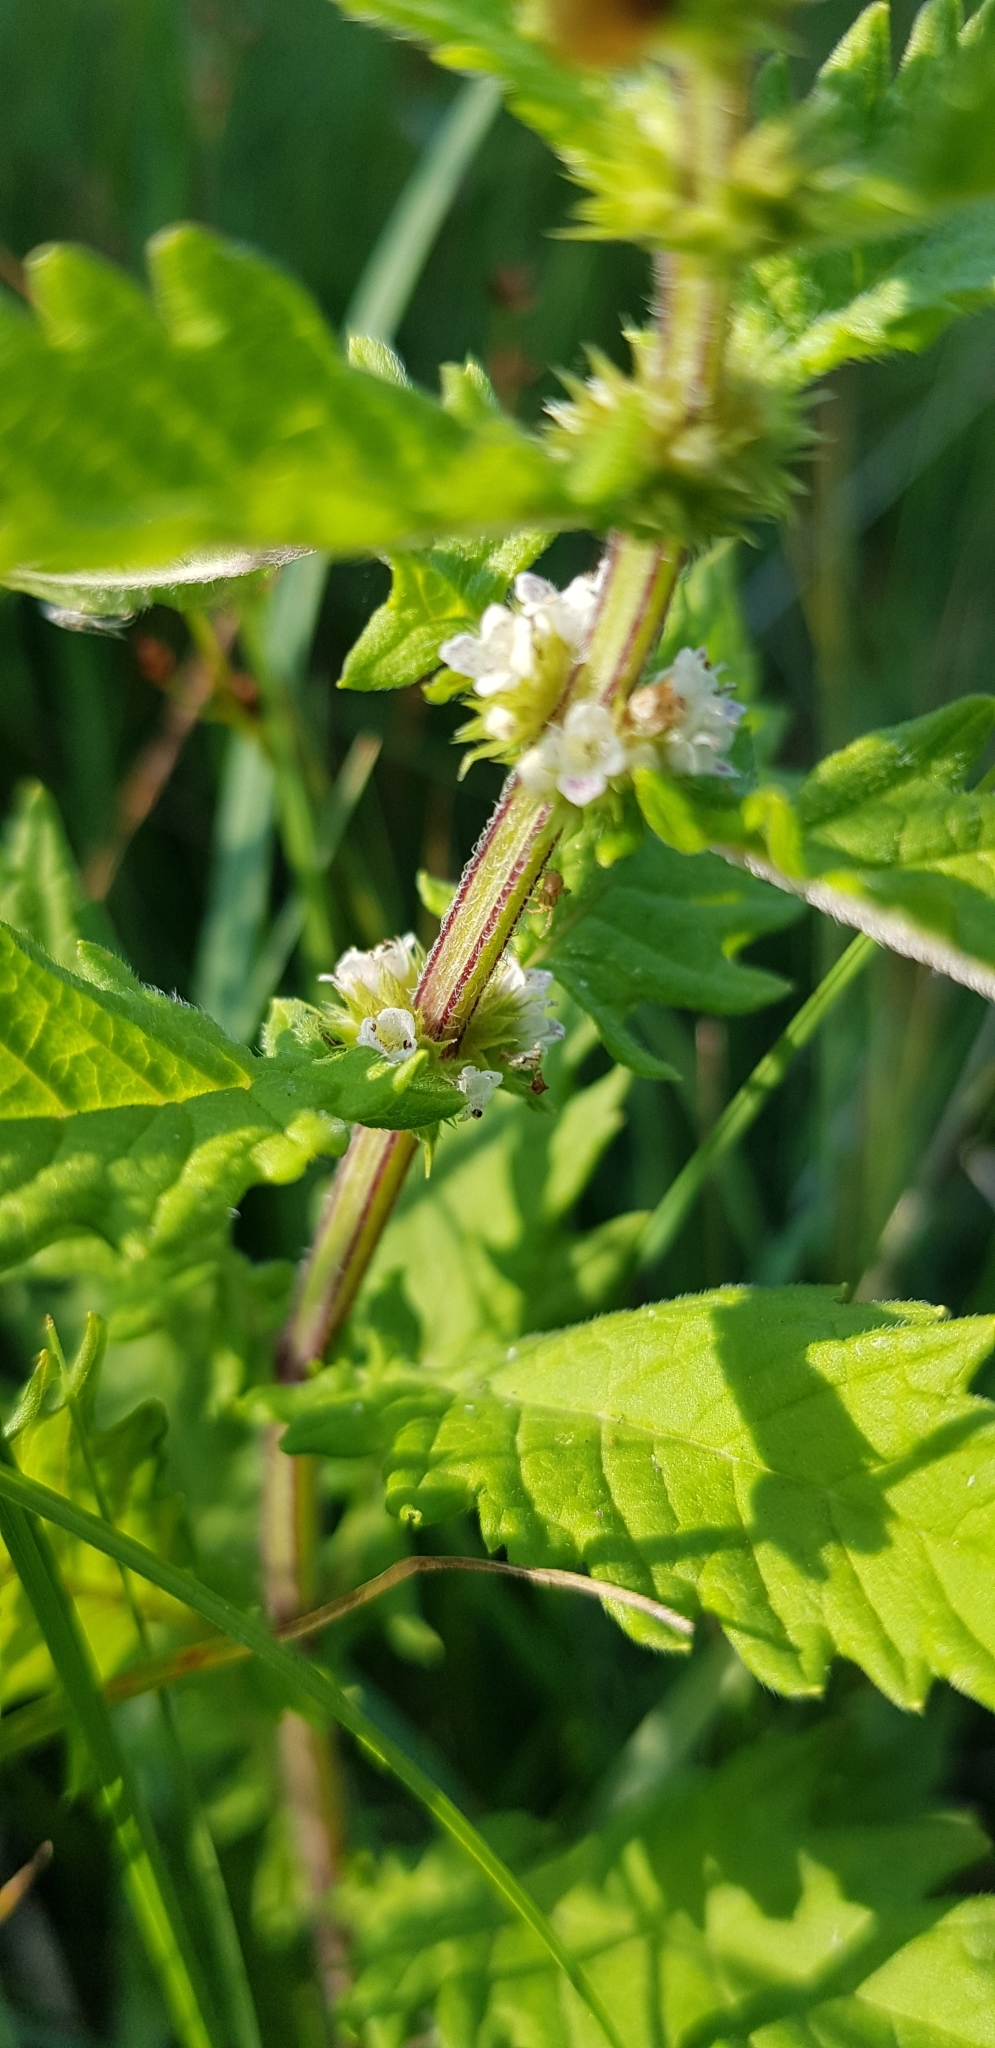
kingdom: Plantae
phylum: Tracheophyta
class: Magnoliopsida
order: Lamiales
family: Lamiaceae
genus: Lycopus
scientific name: Lycopus europaeus
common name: European bugleweed
